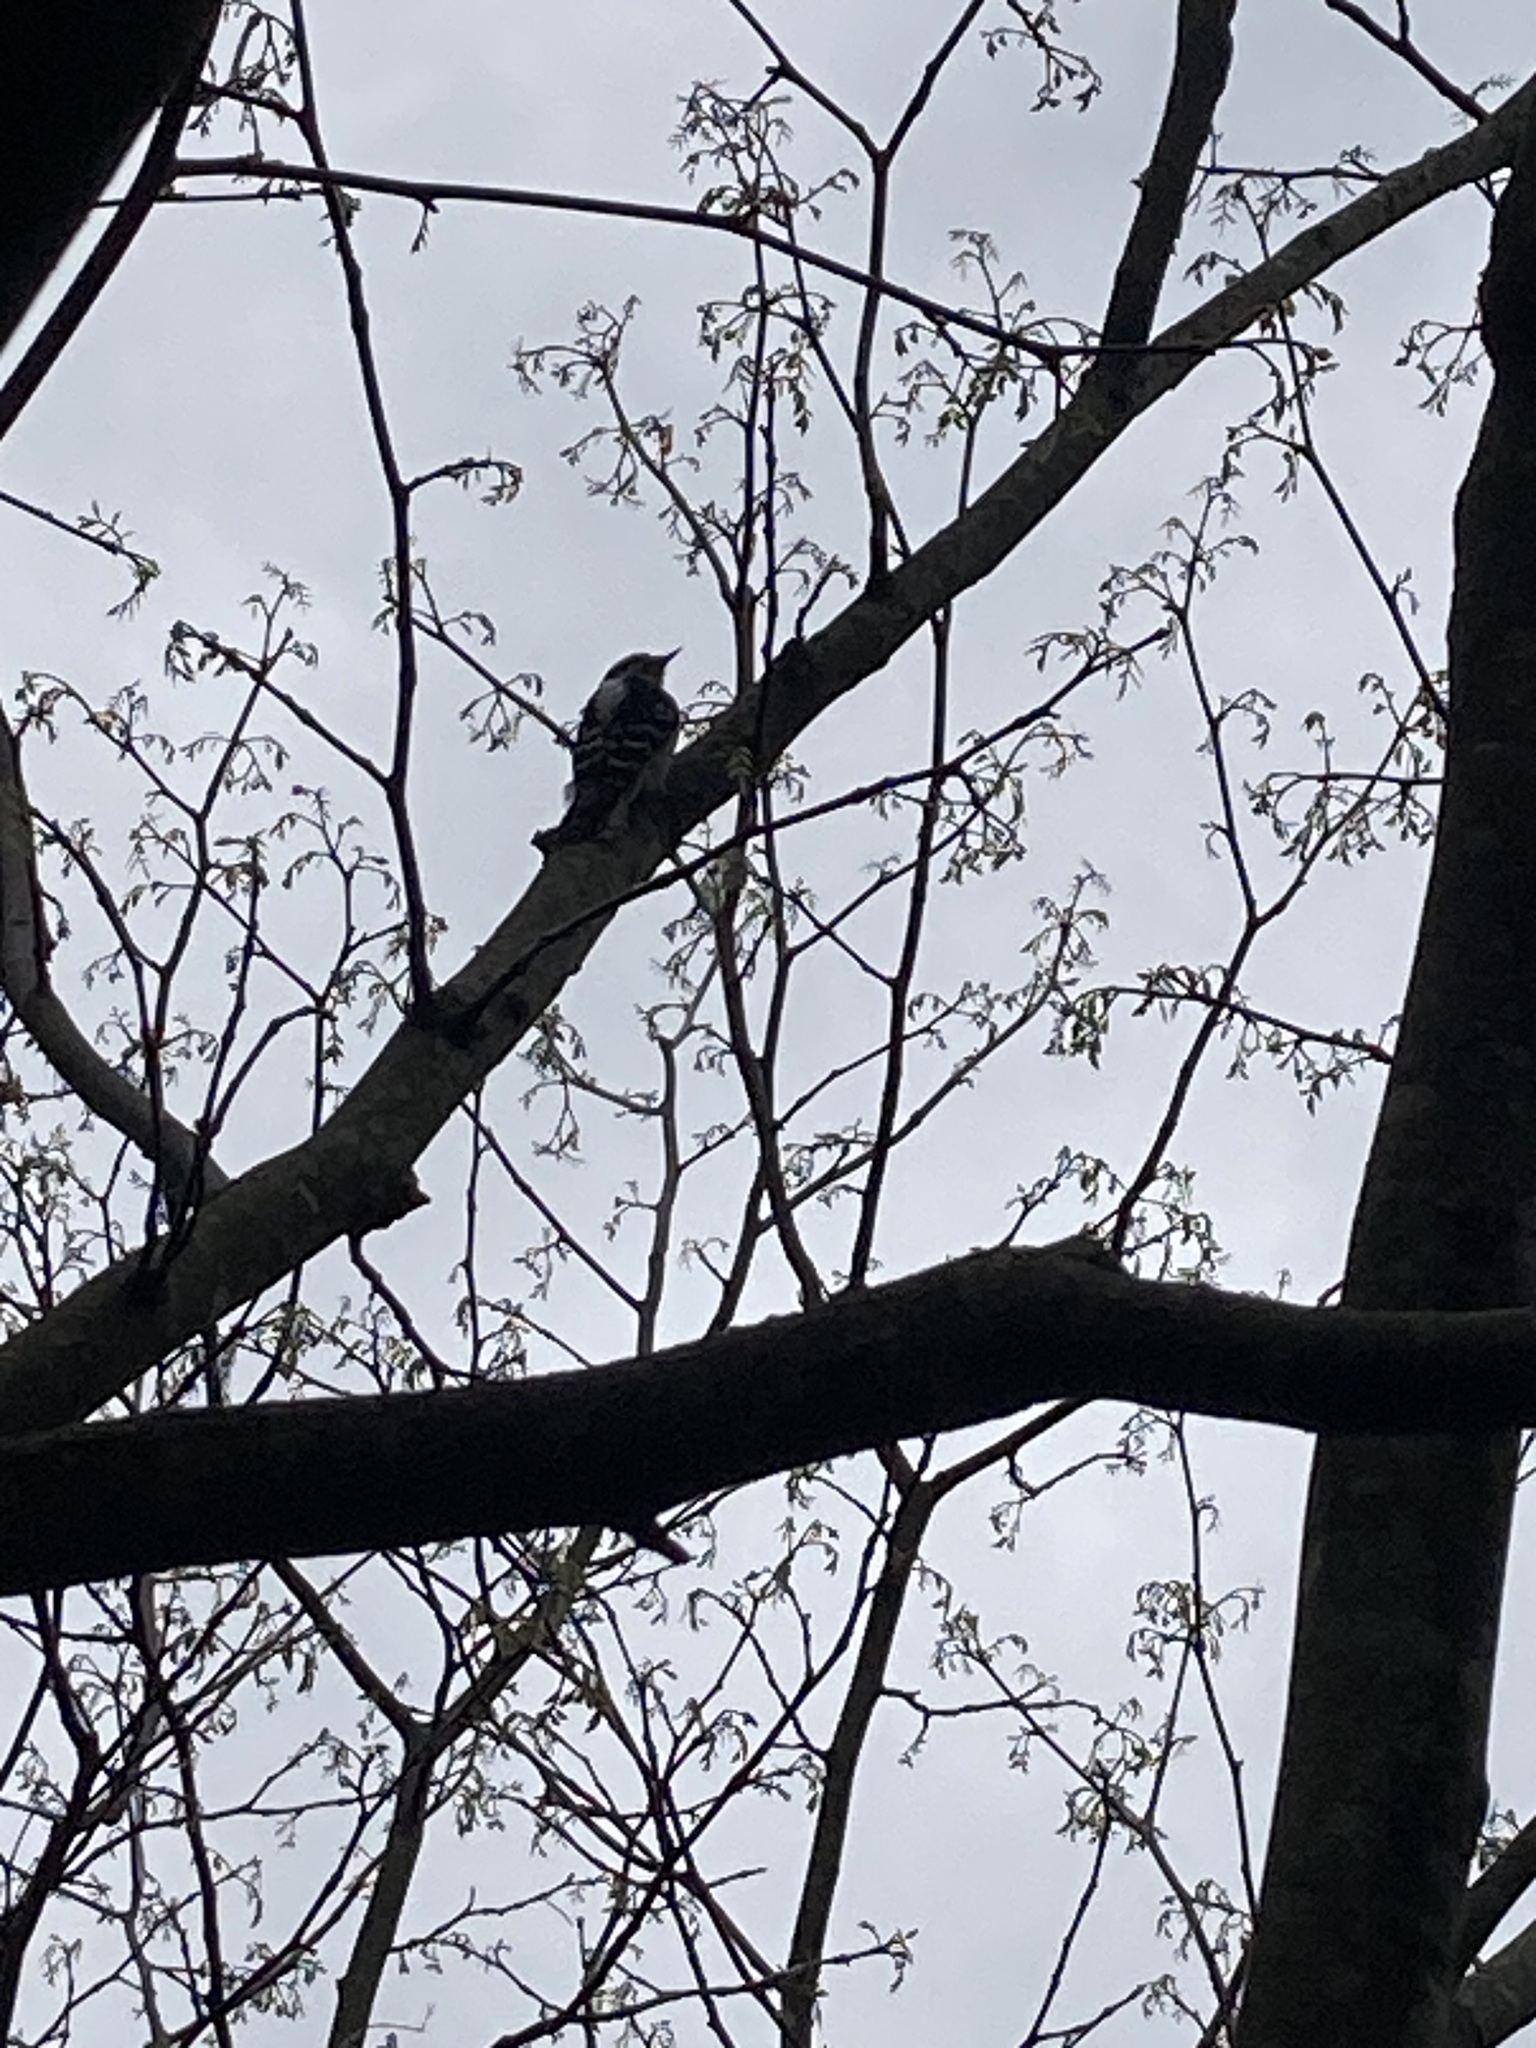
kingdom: Animalia
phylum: Chordata
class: Aves
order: Piciformes
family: Picidae
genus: Dryobates
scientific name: Dryobates pubescens
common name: Downy woodpecker
